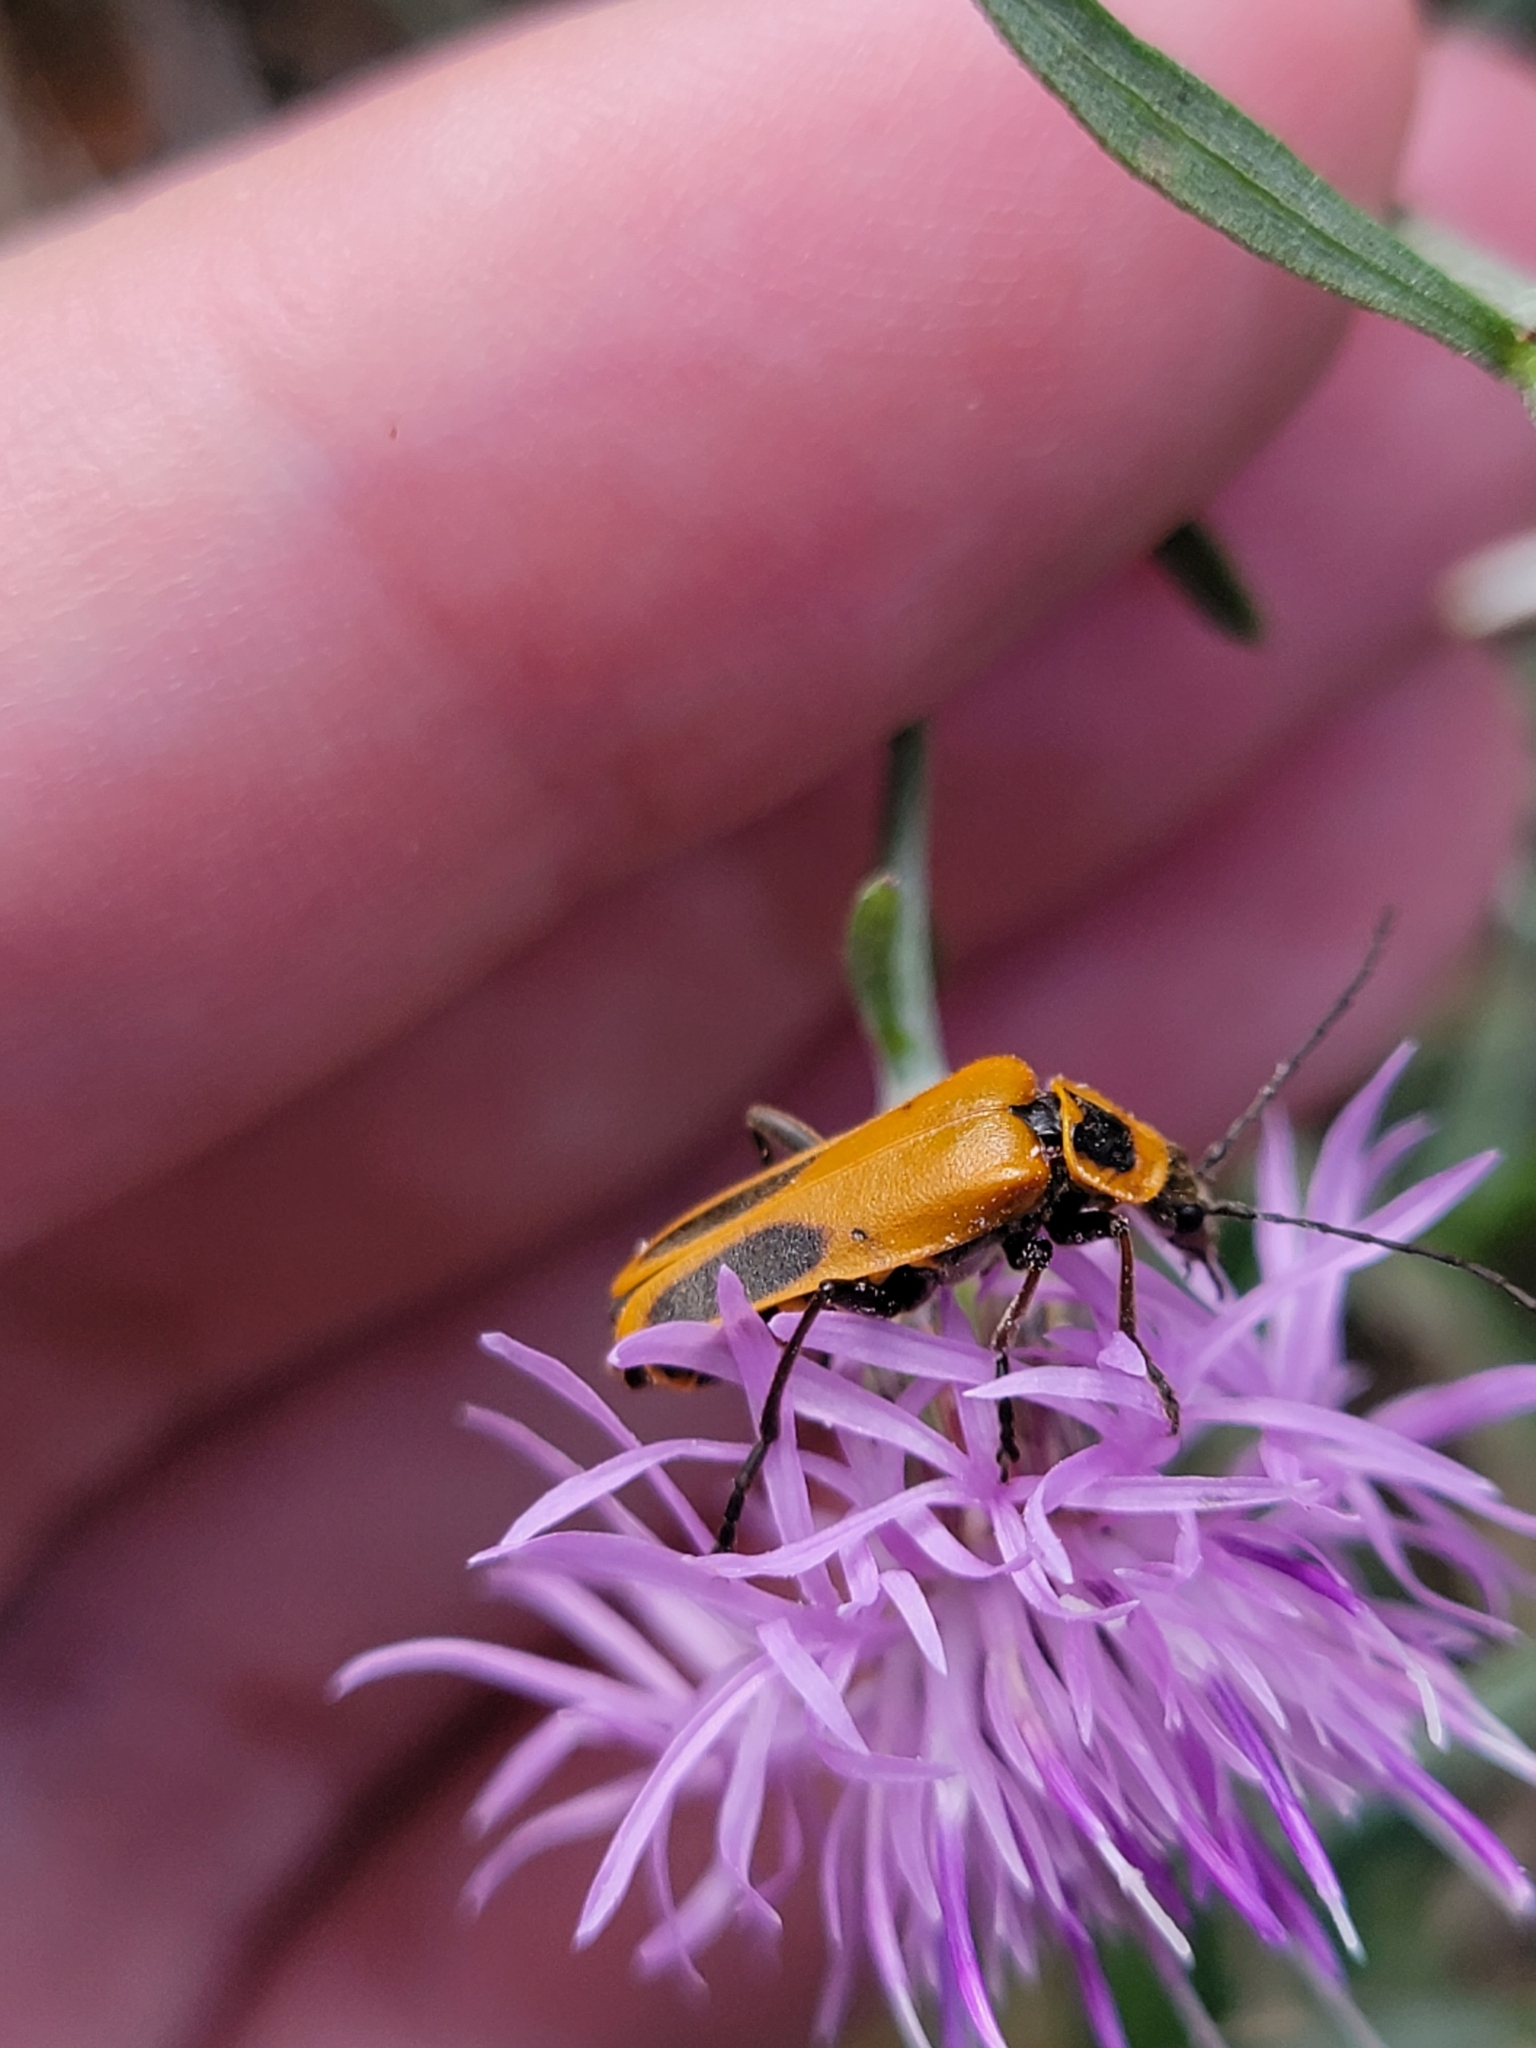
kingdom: Animalia
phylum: Arthropoda
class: Insecta
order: Coleoptera
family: Cantharidae
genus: Chauliognathus
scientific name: Chauliognathus pensylvanicus
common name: Goldenrod soldier beetle
